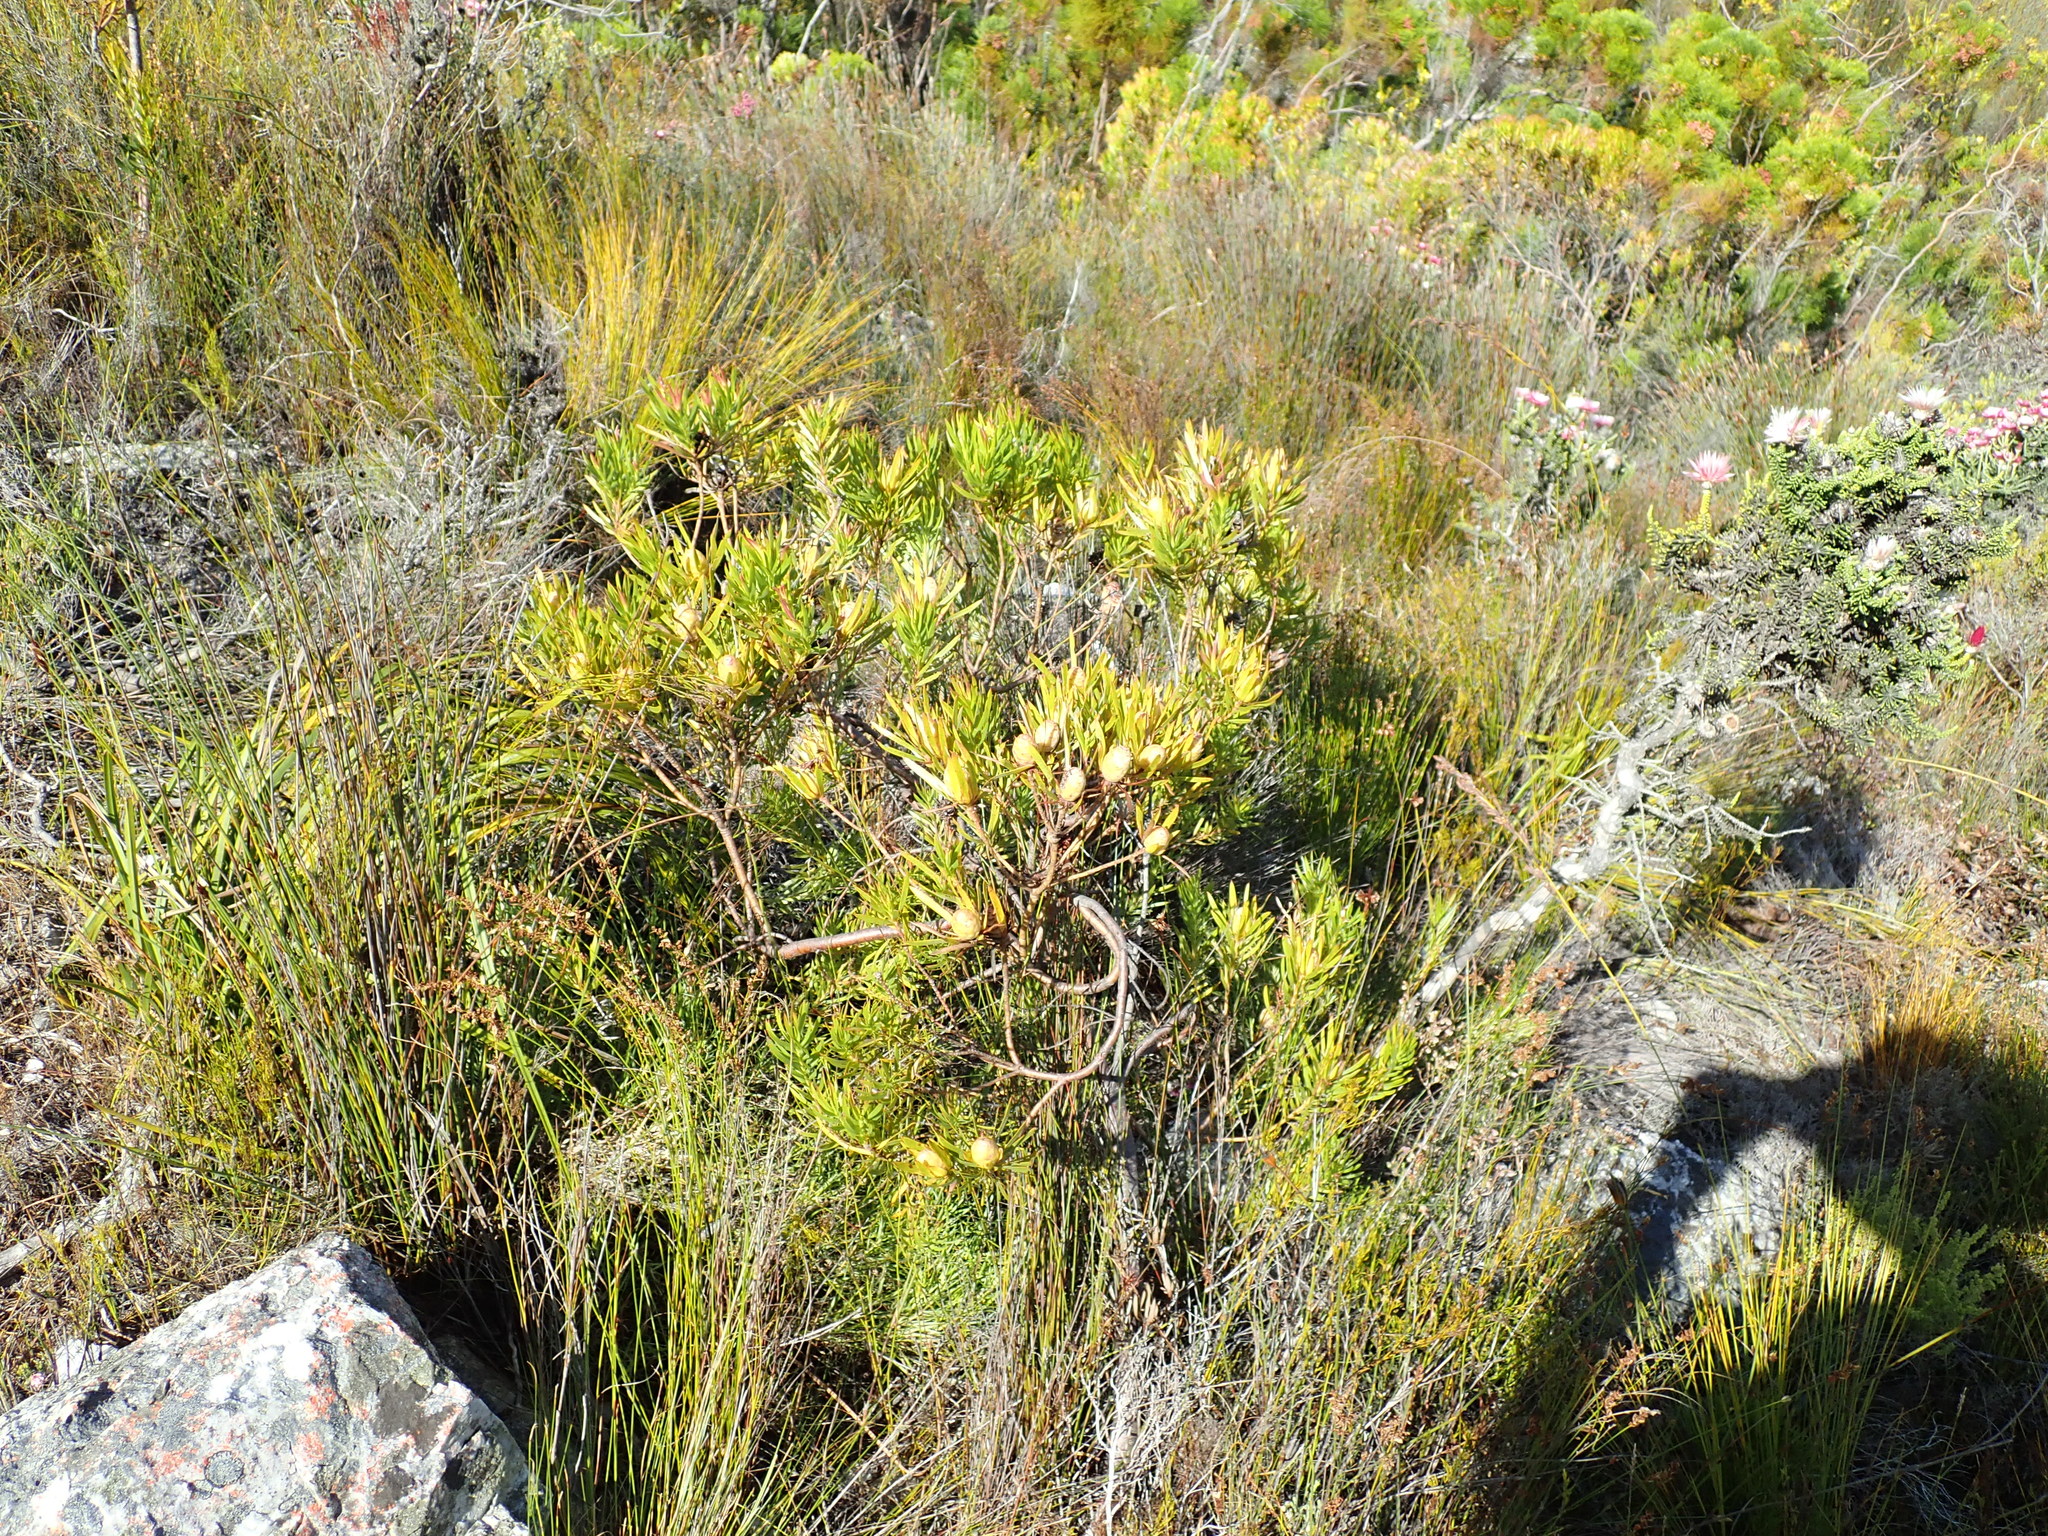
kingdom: Plantae
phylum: Tracheophyta
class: Magnoliopsida
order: Proteales
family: Proteaceae
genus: Leucadendron
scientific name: Leucadendron xanthoconus
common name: Sickle-leaf conebush
